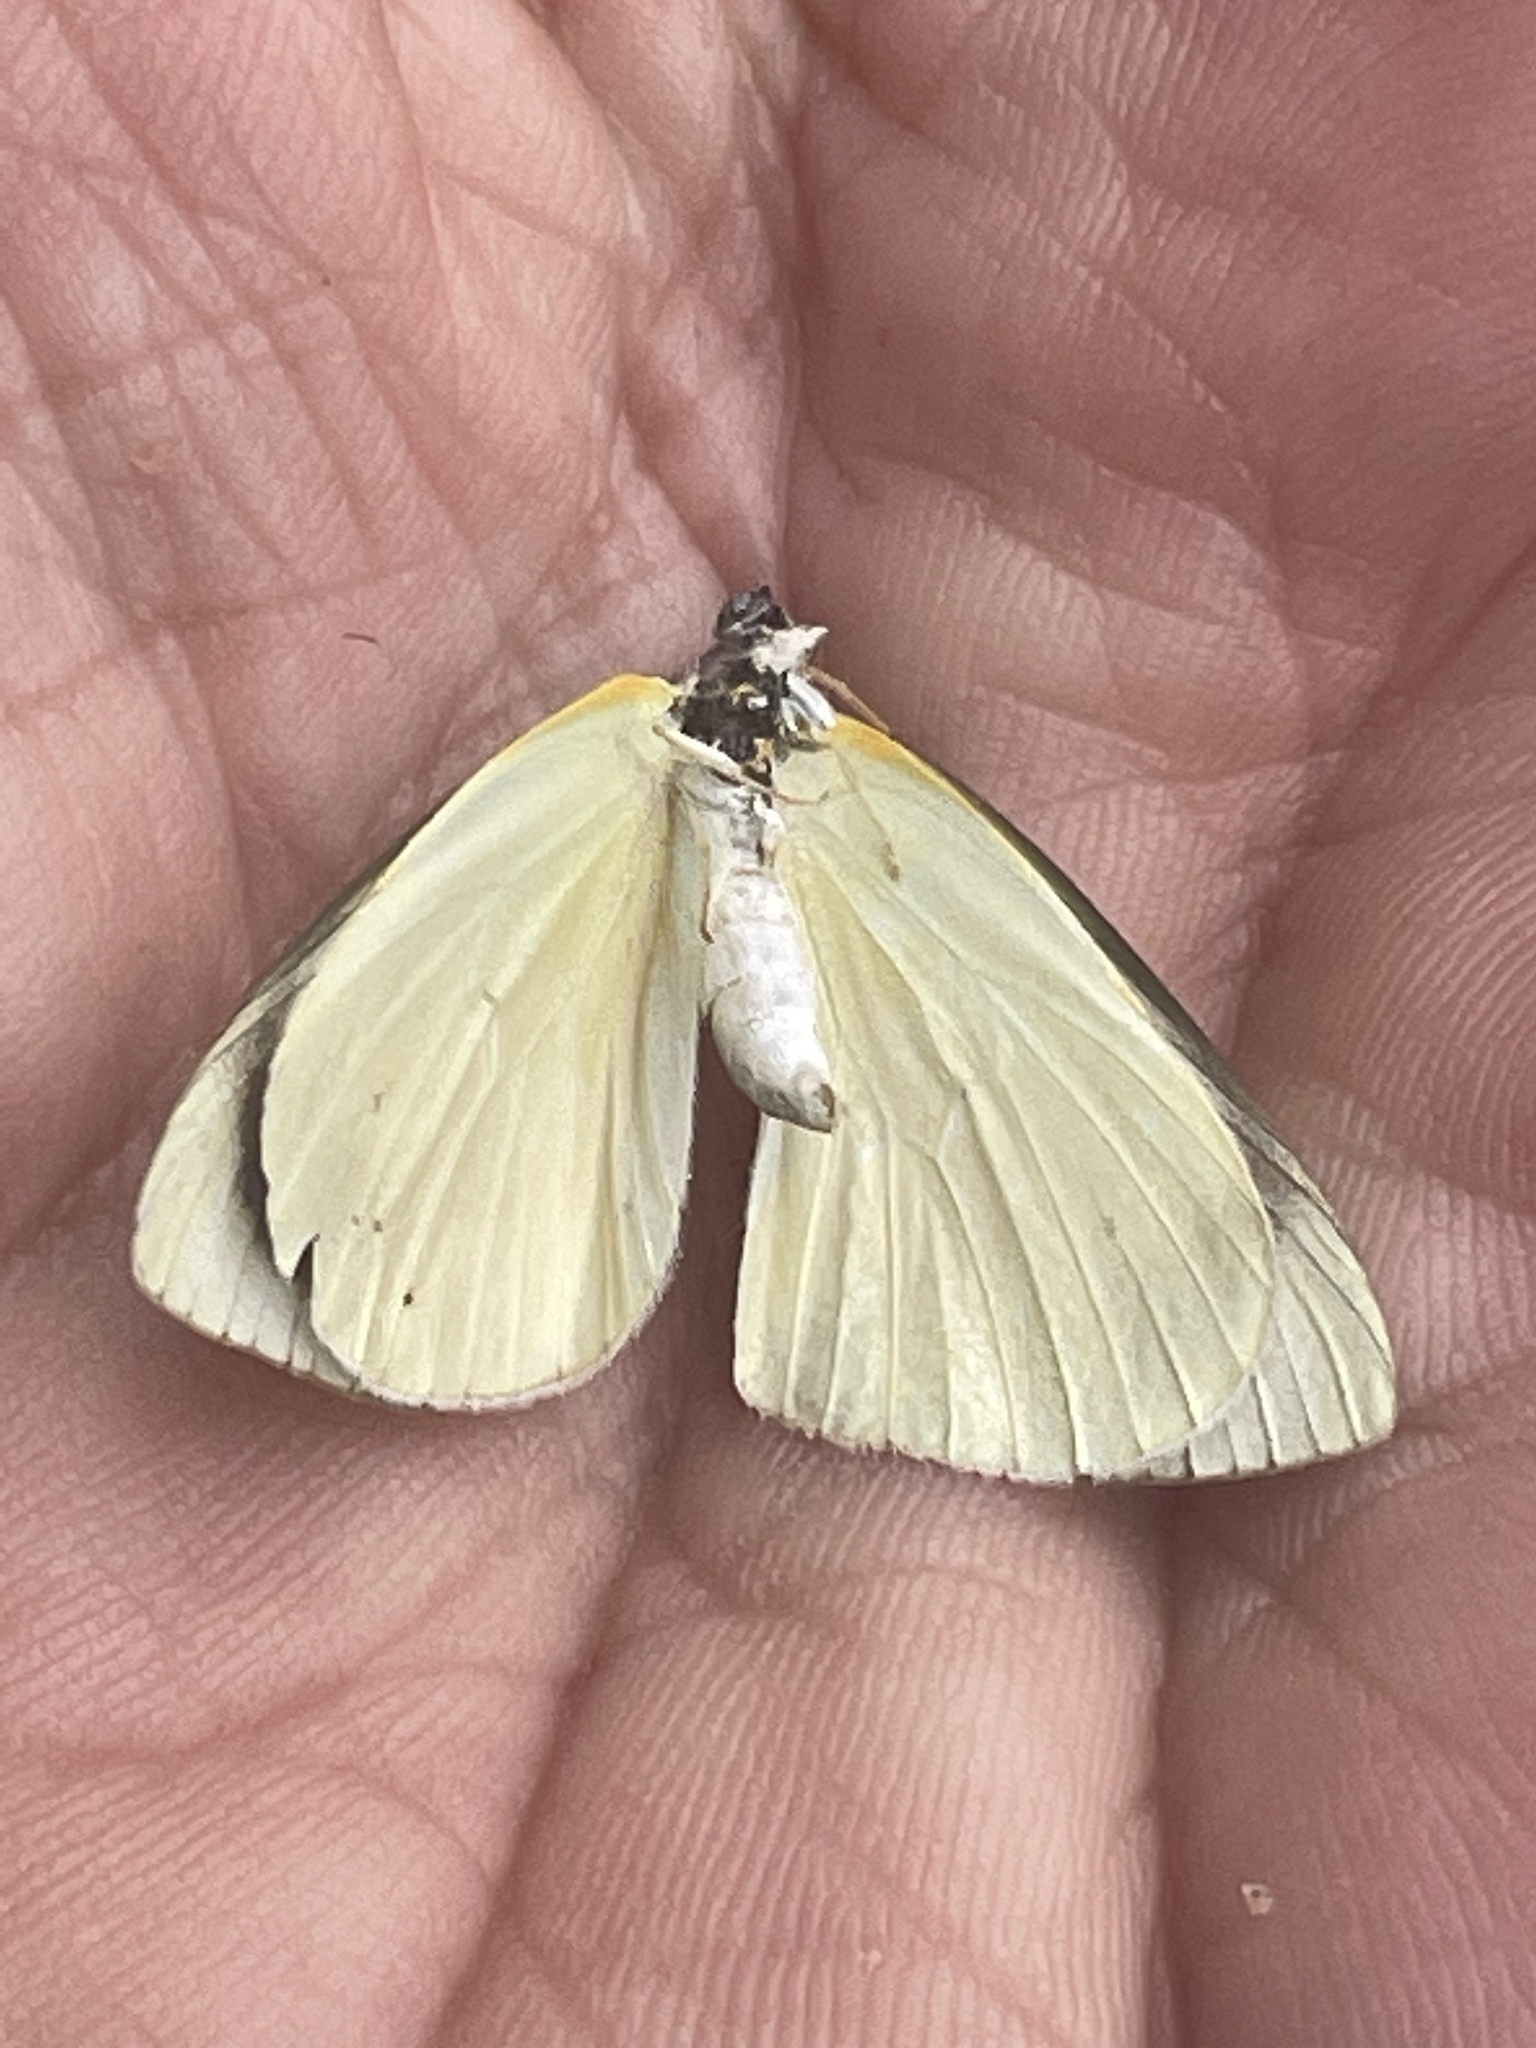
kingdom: Animalia
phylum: Arthropoda
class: Insecta
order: Lepidoptera
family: Pieridae
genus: Elodina
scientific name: Elodina angulipennis
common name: Common pearl white
